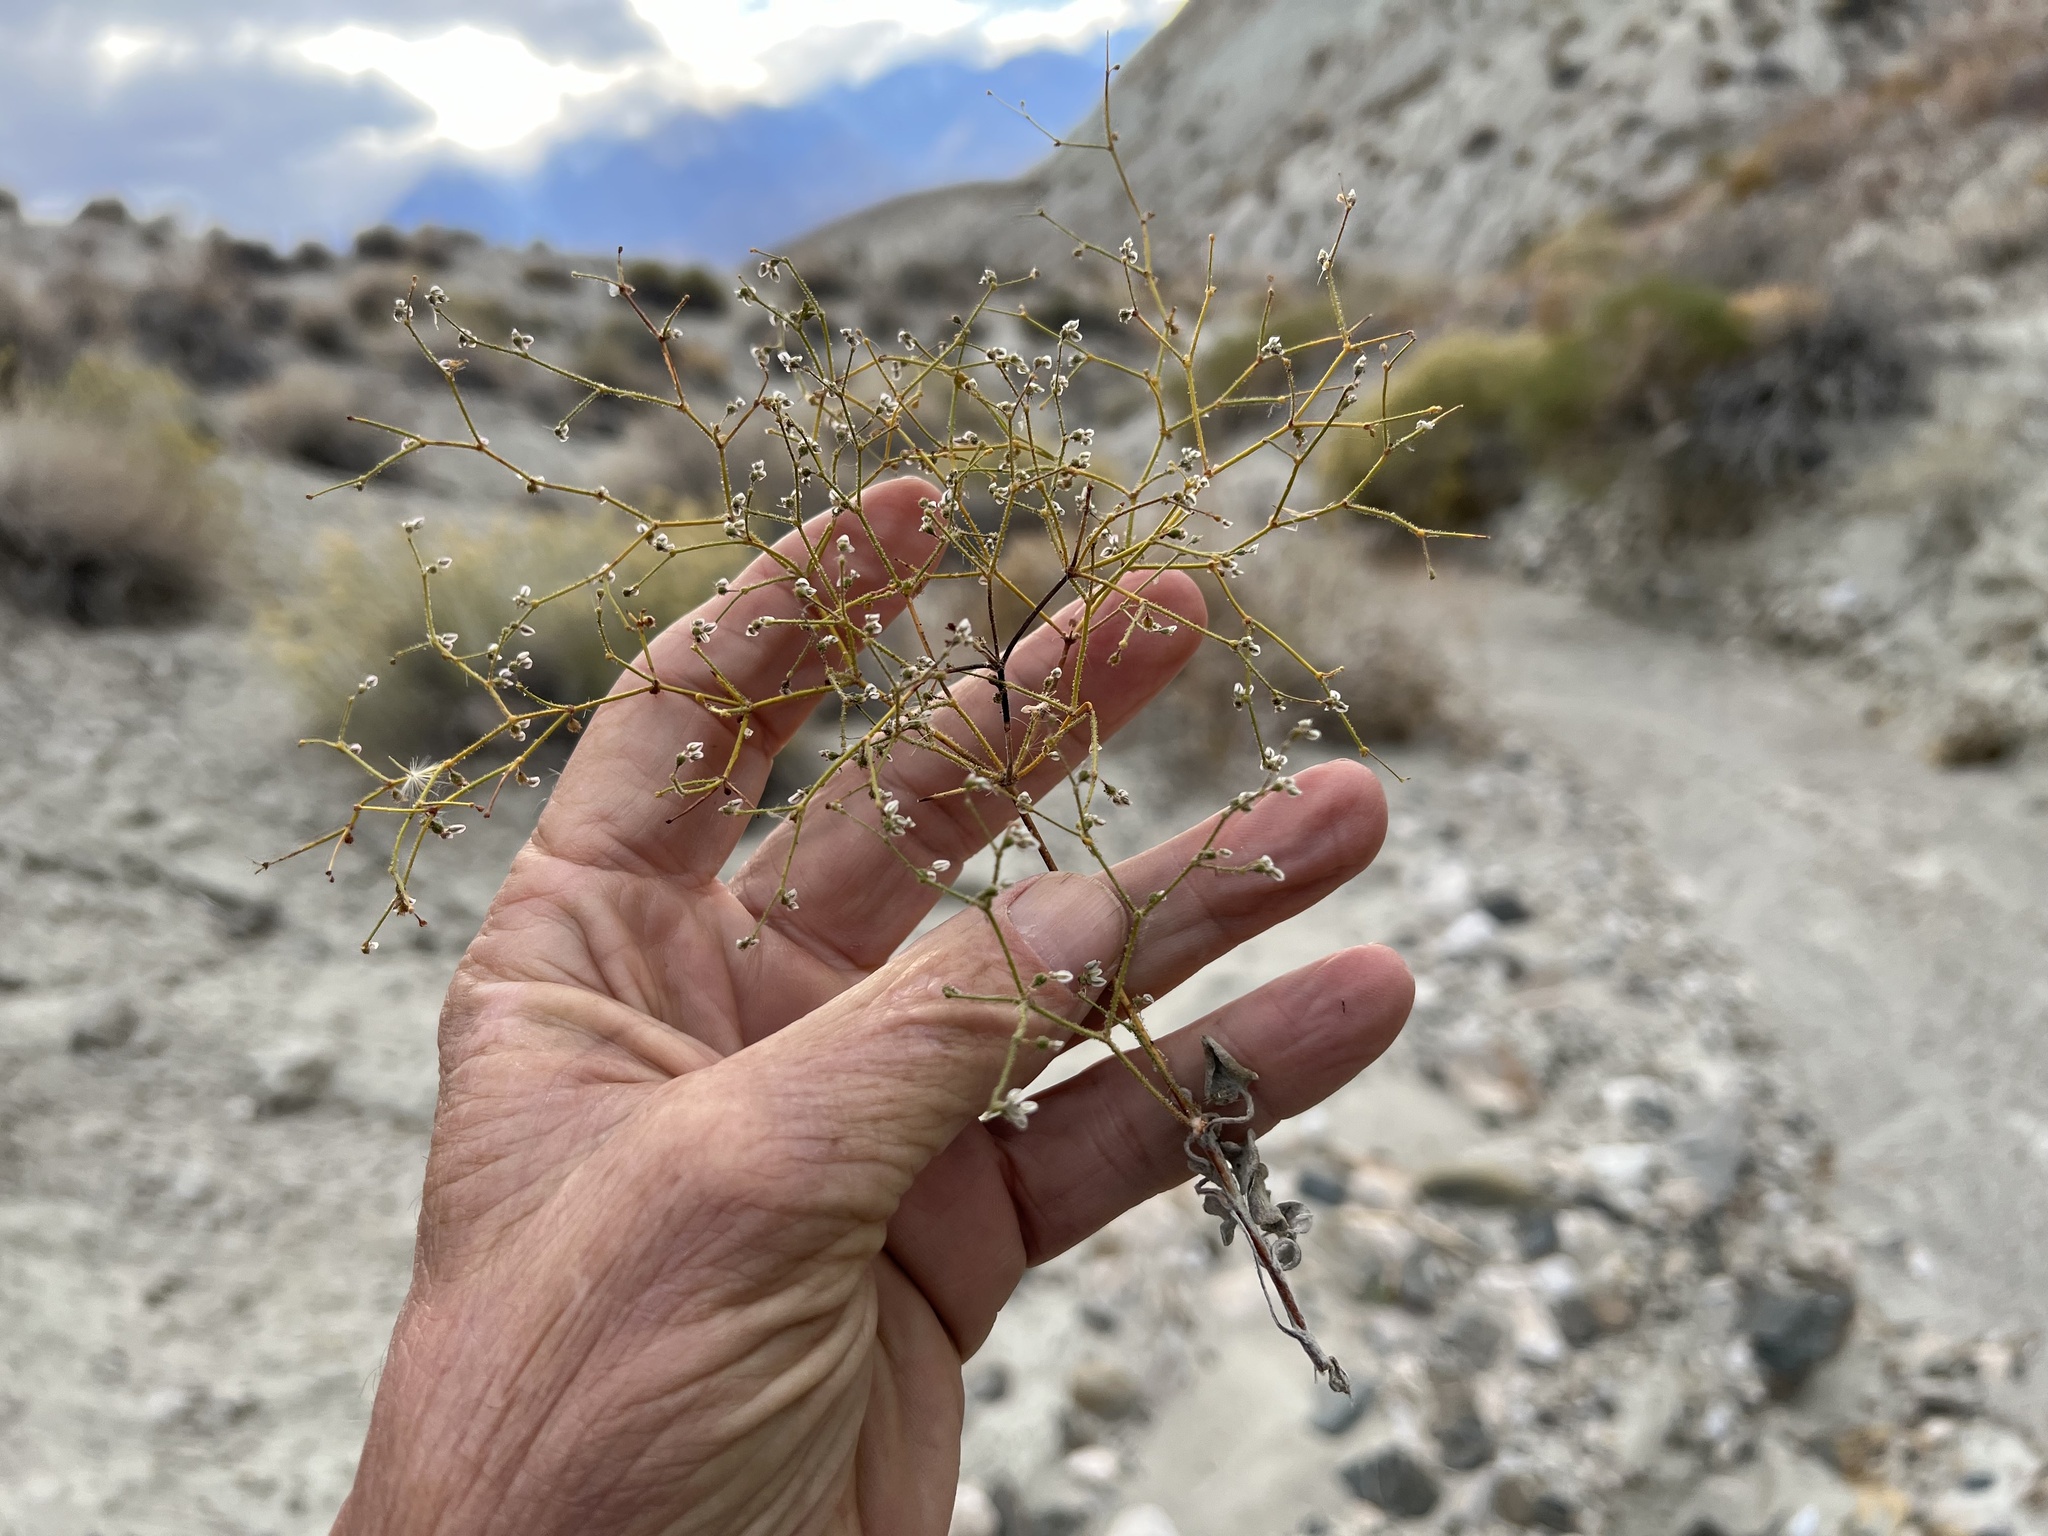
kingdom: Plantae
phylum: Tracheophyta
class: Magnoliopsida
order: Caryophyllales
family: Polygonaceae
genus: Eriogonum
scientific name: Eriogonum brachypodum
